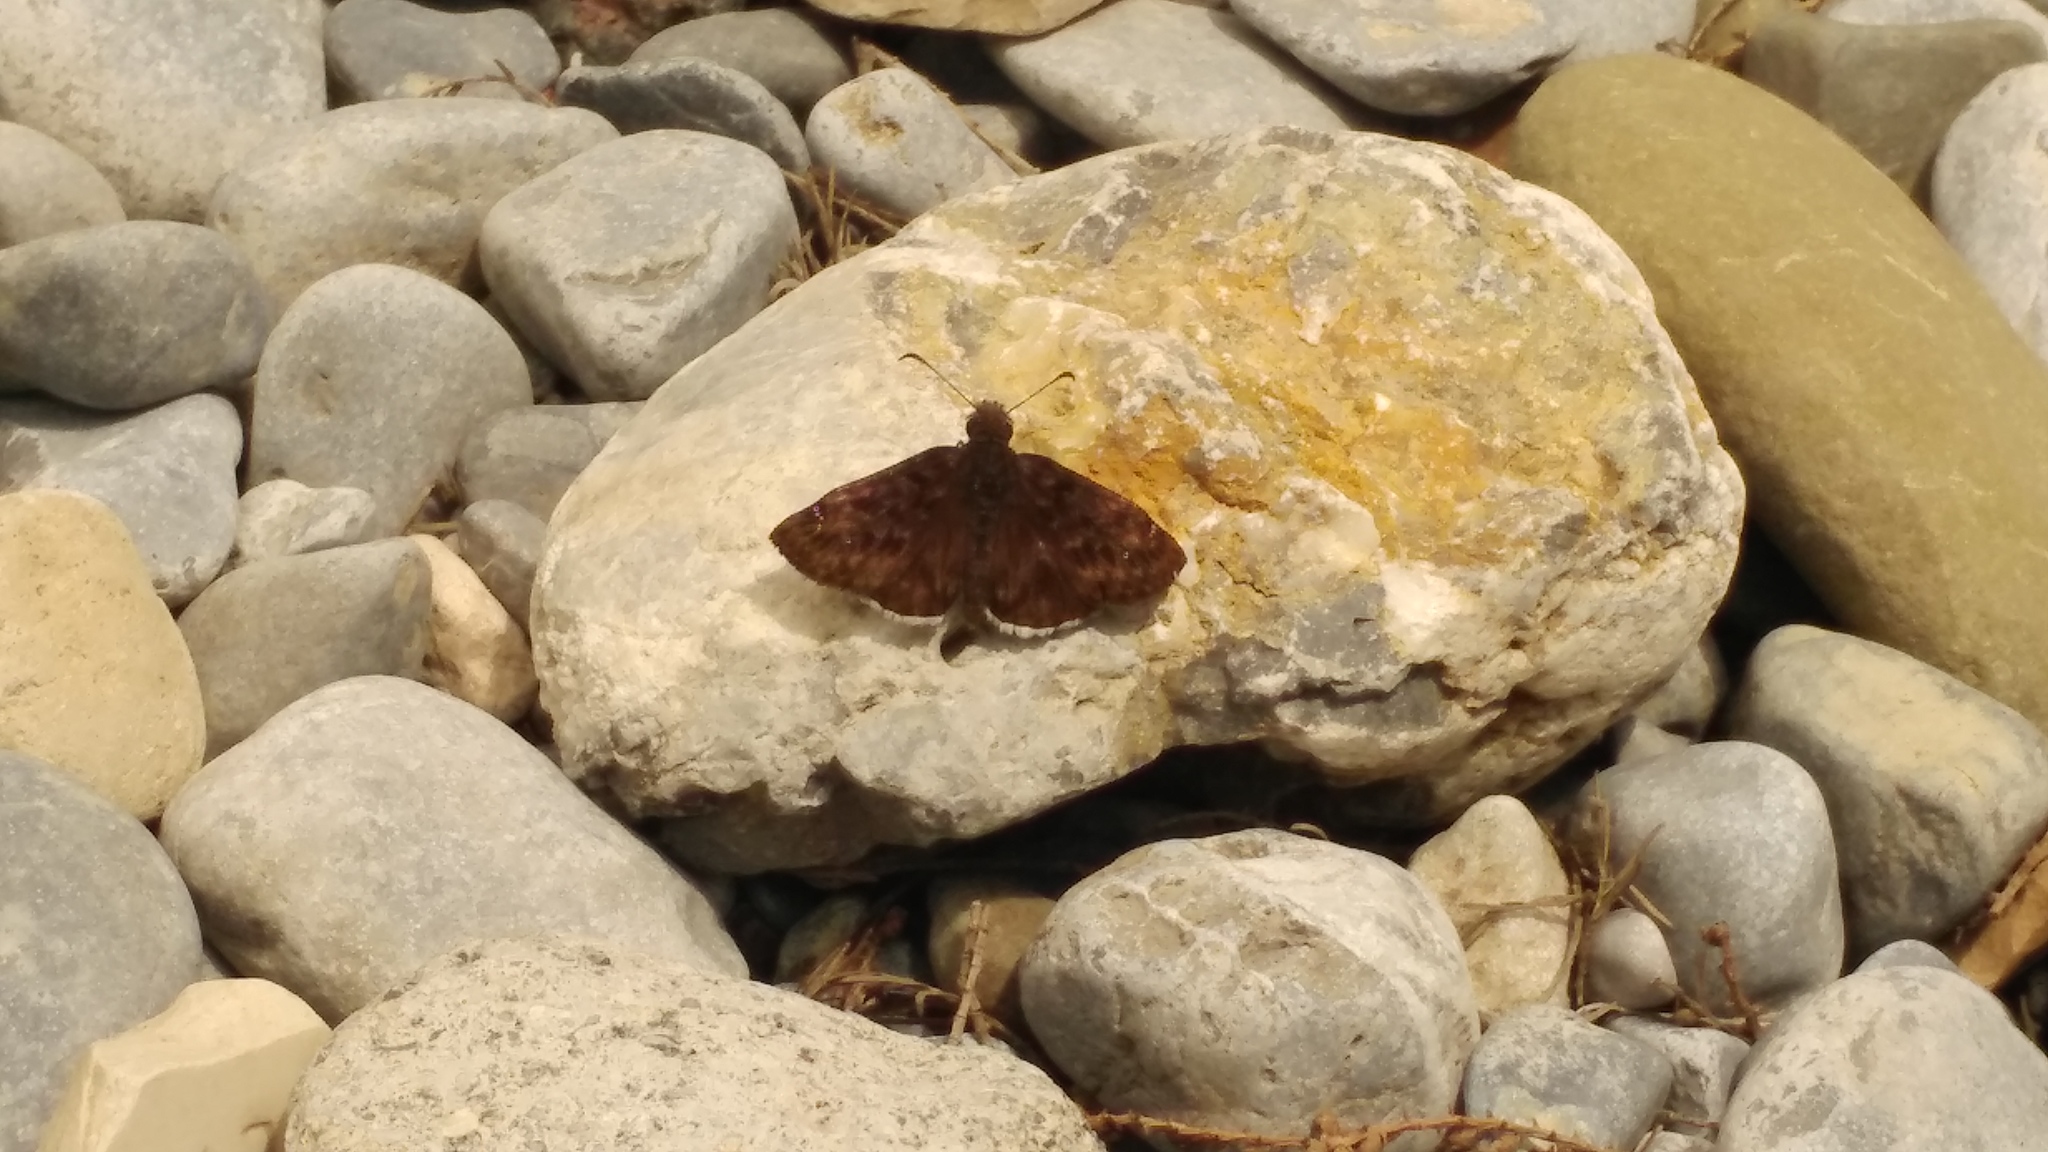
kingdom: Animalia
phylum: Arthropoda
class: Insecta
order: Lepidoptera
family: Hesperiidae
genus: Erynnis
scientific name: Erynnis funeralis
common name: Funereal duskywing
